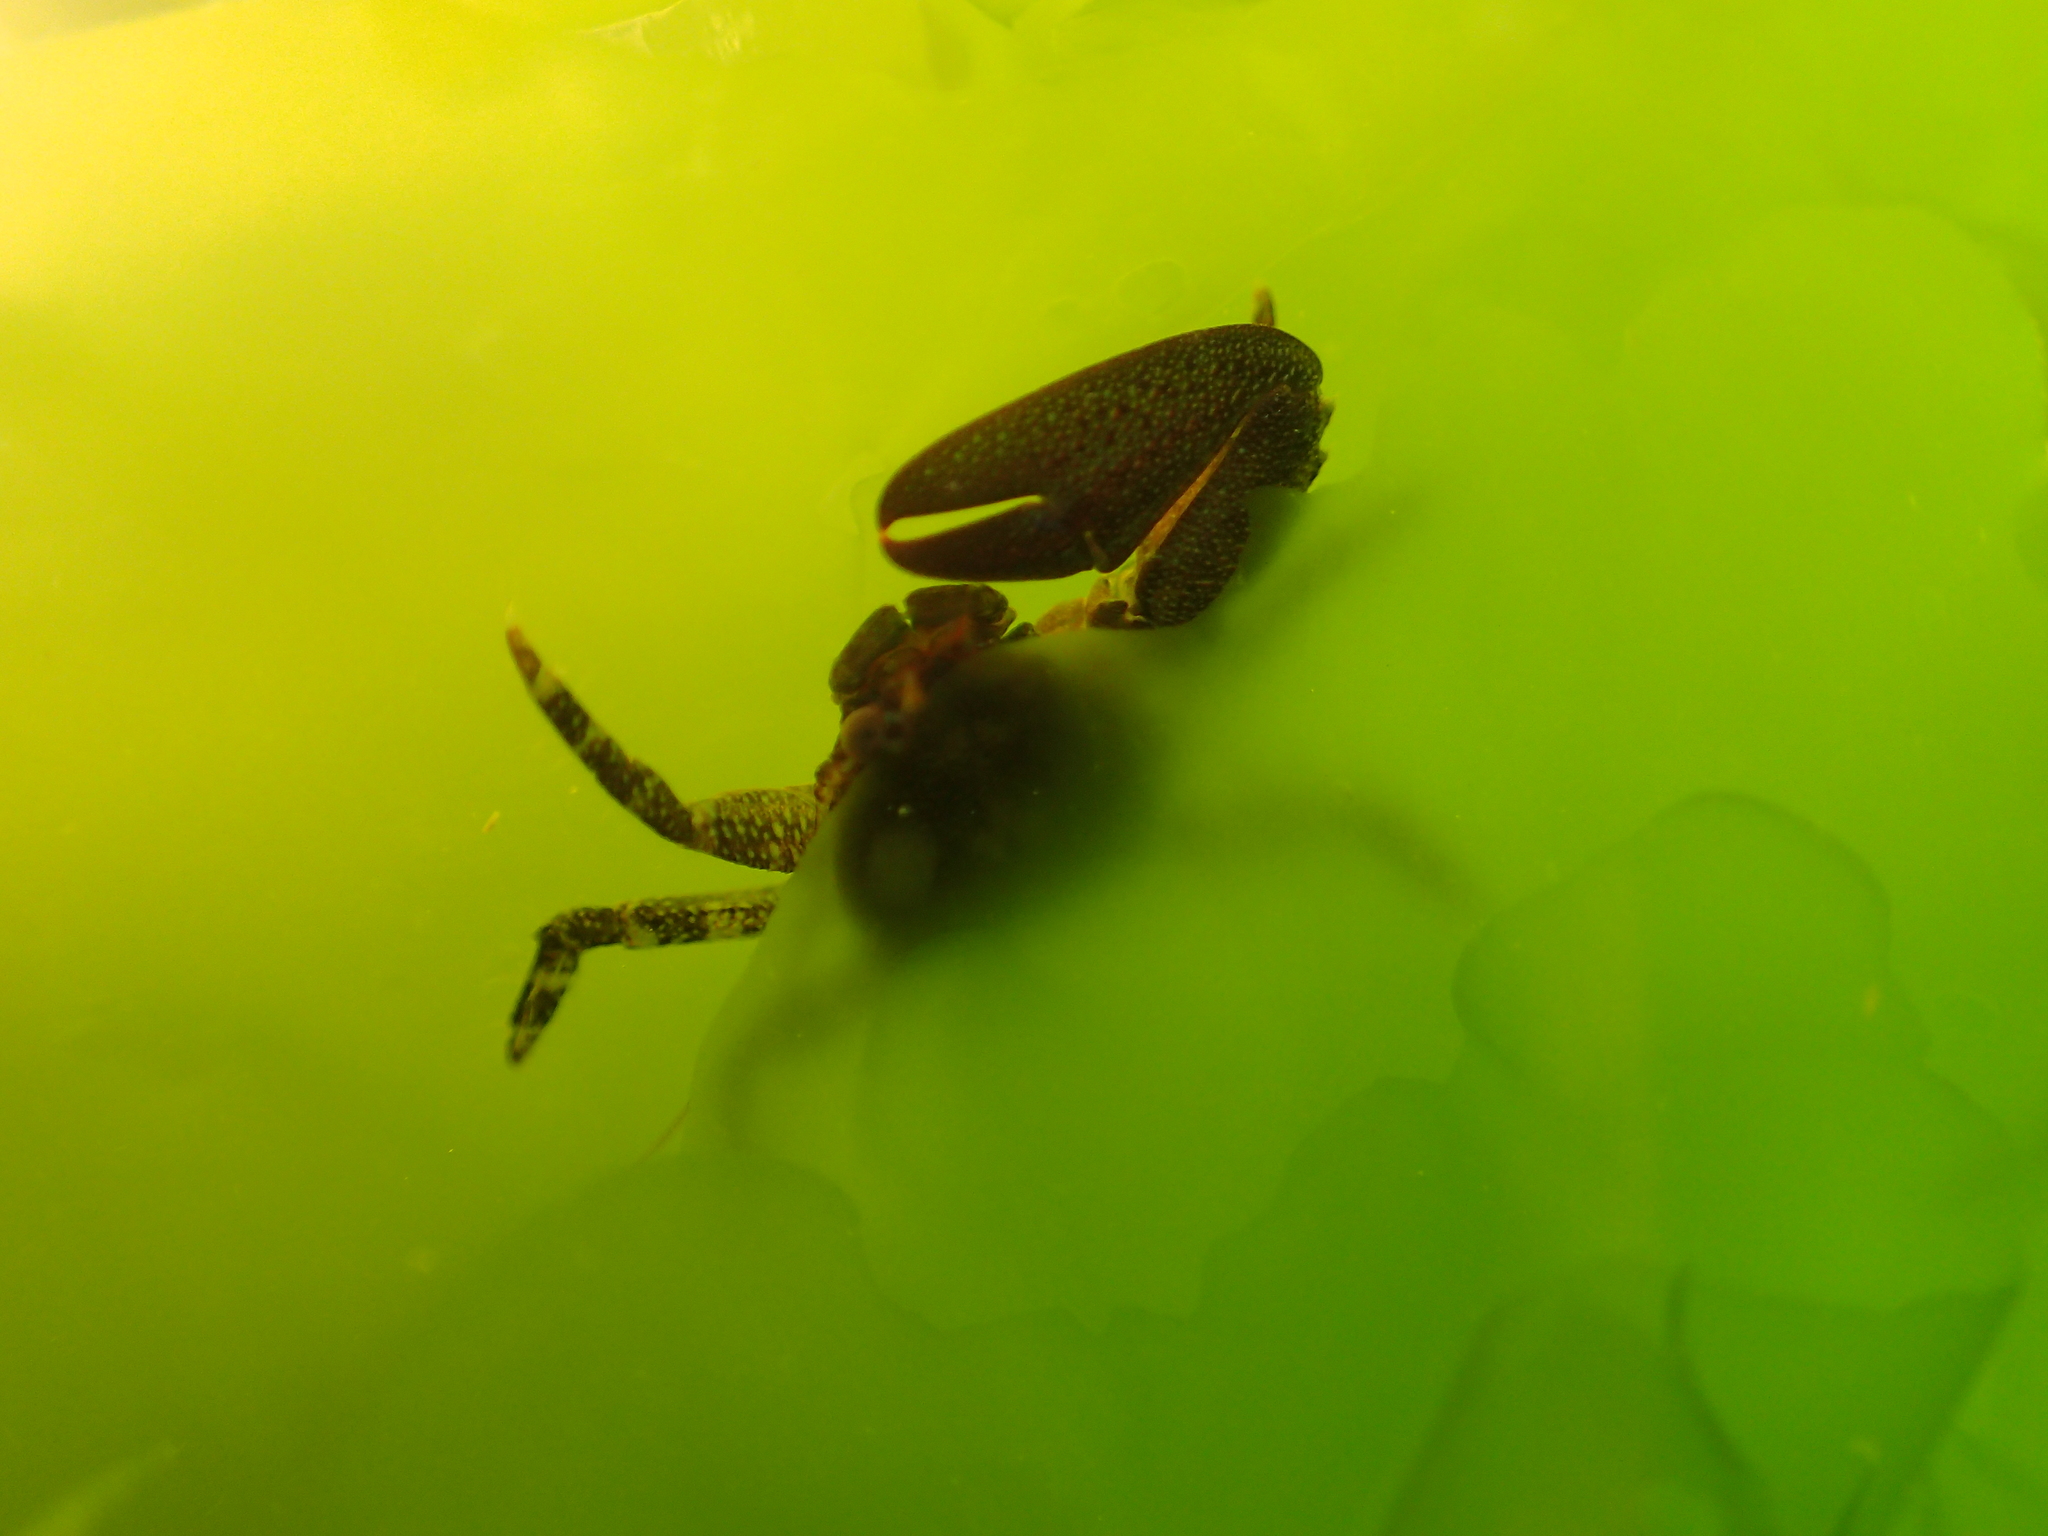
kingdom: Animalia
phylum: Arthropoda
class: Malacostraca
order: Decapoda
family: Porcellanidae
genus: Petrolisthes
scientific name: Petrolisthes elongatus
